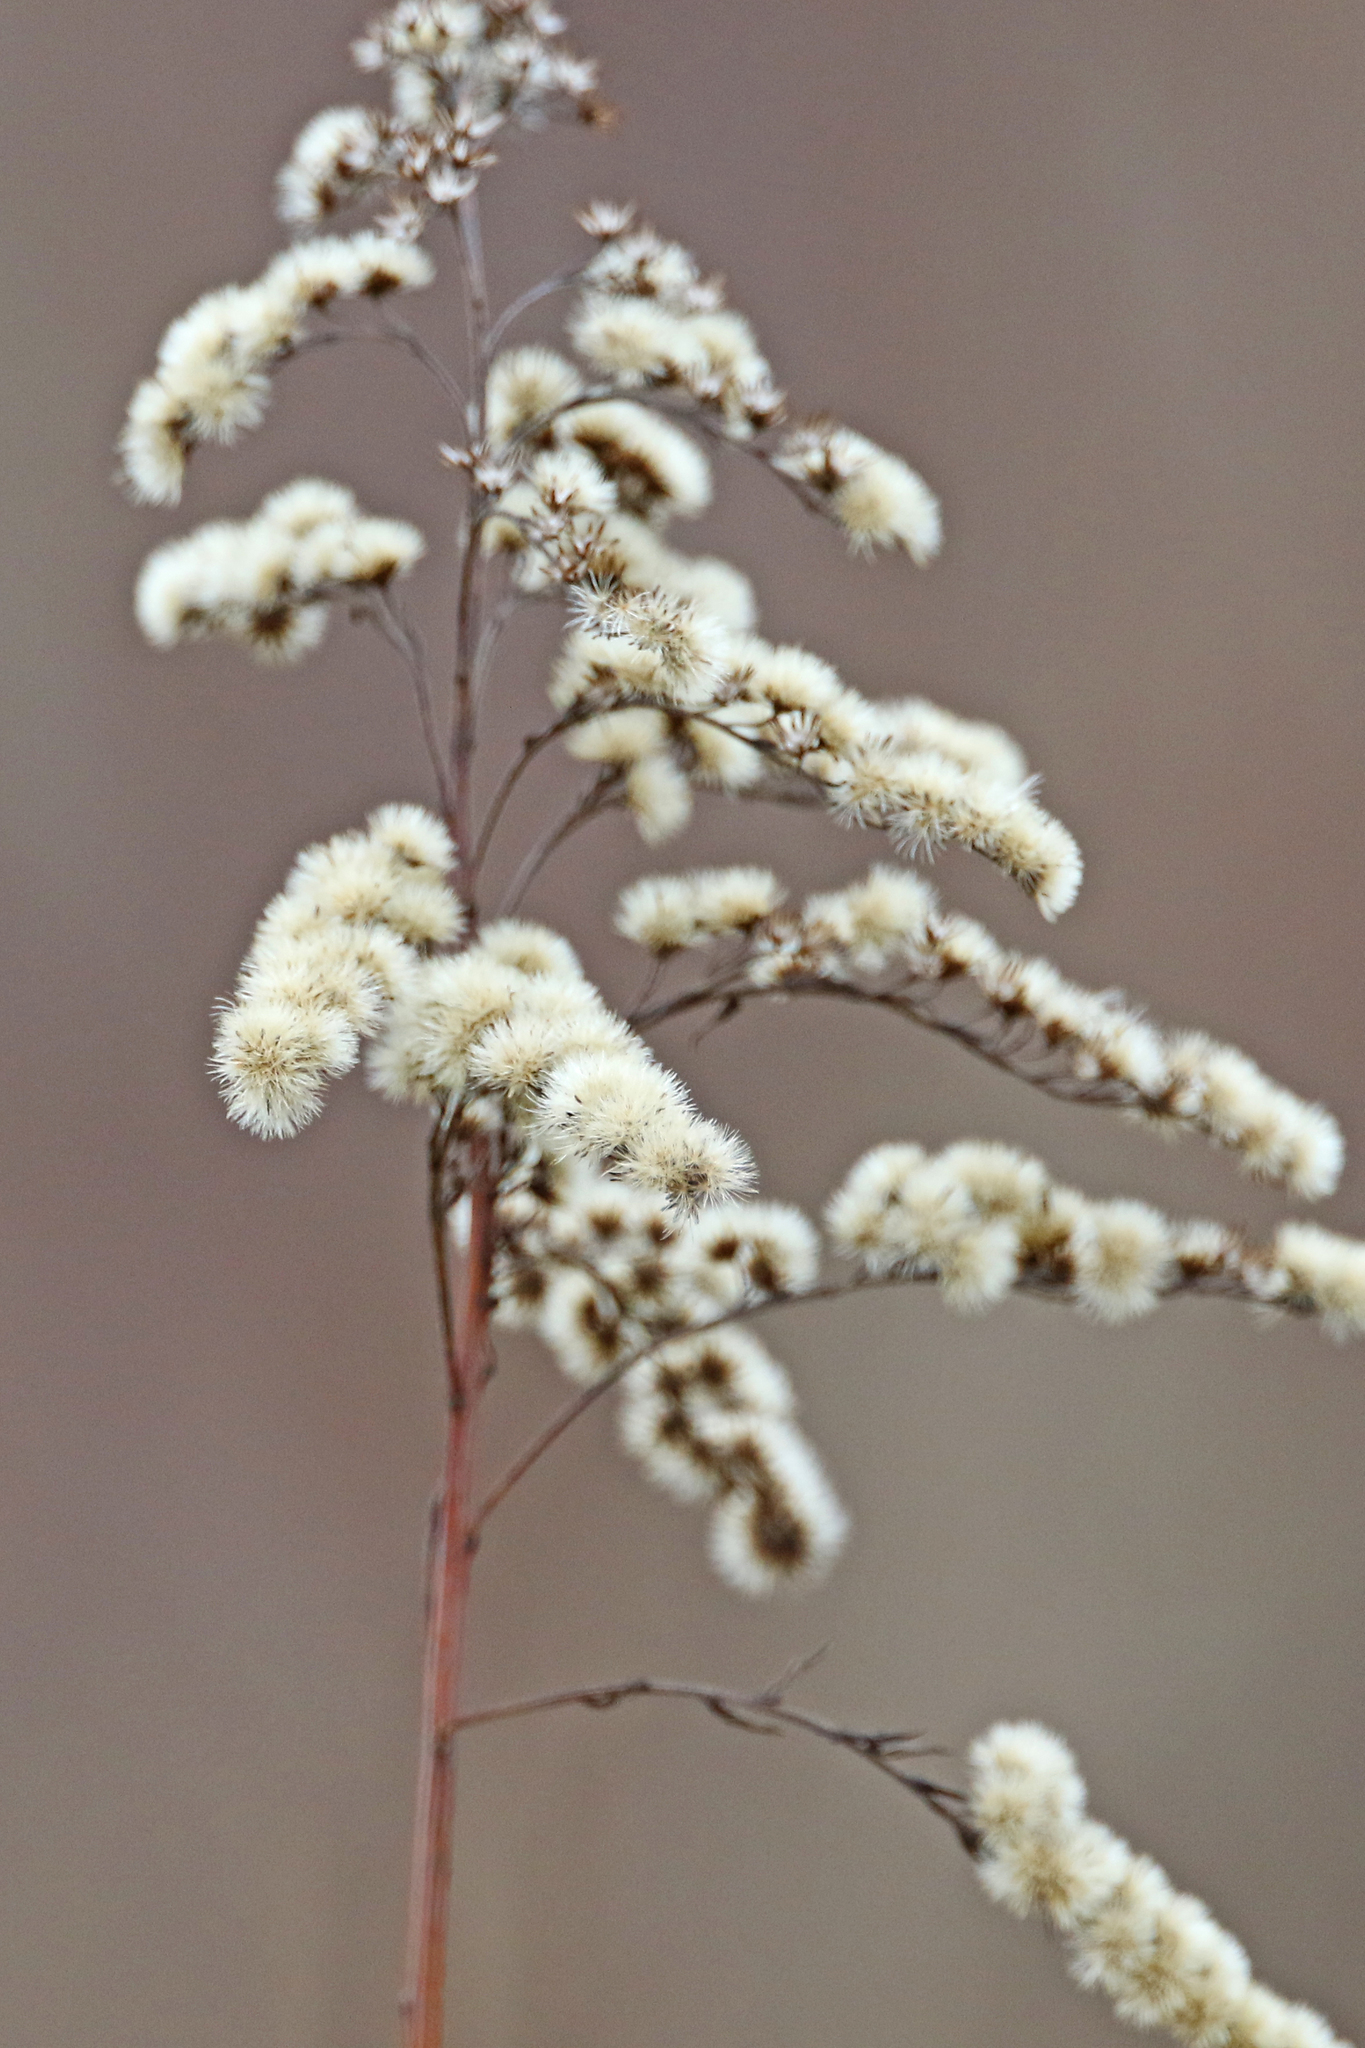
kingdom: Plantae
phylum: Tracheophyta
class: Magnoliopsida
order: Asterales
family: Asteraceae
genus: Solidago
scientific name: Solidago canadensis
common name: Canada goldenrod
